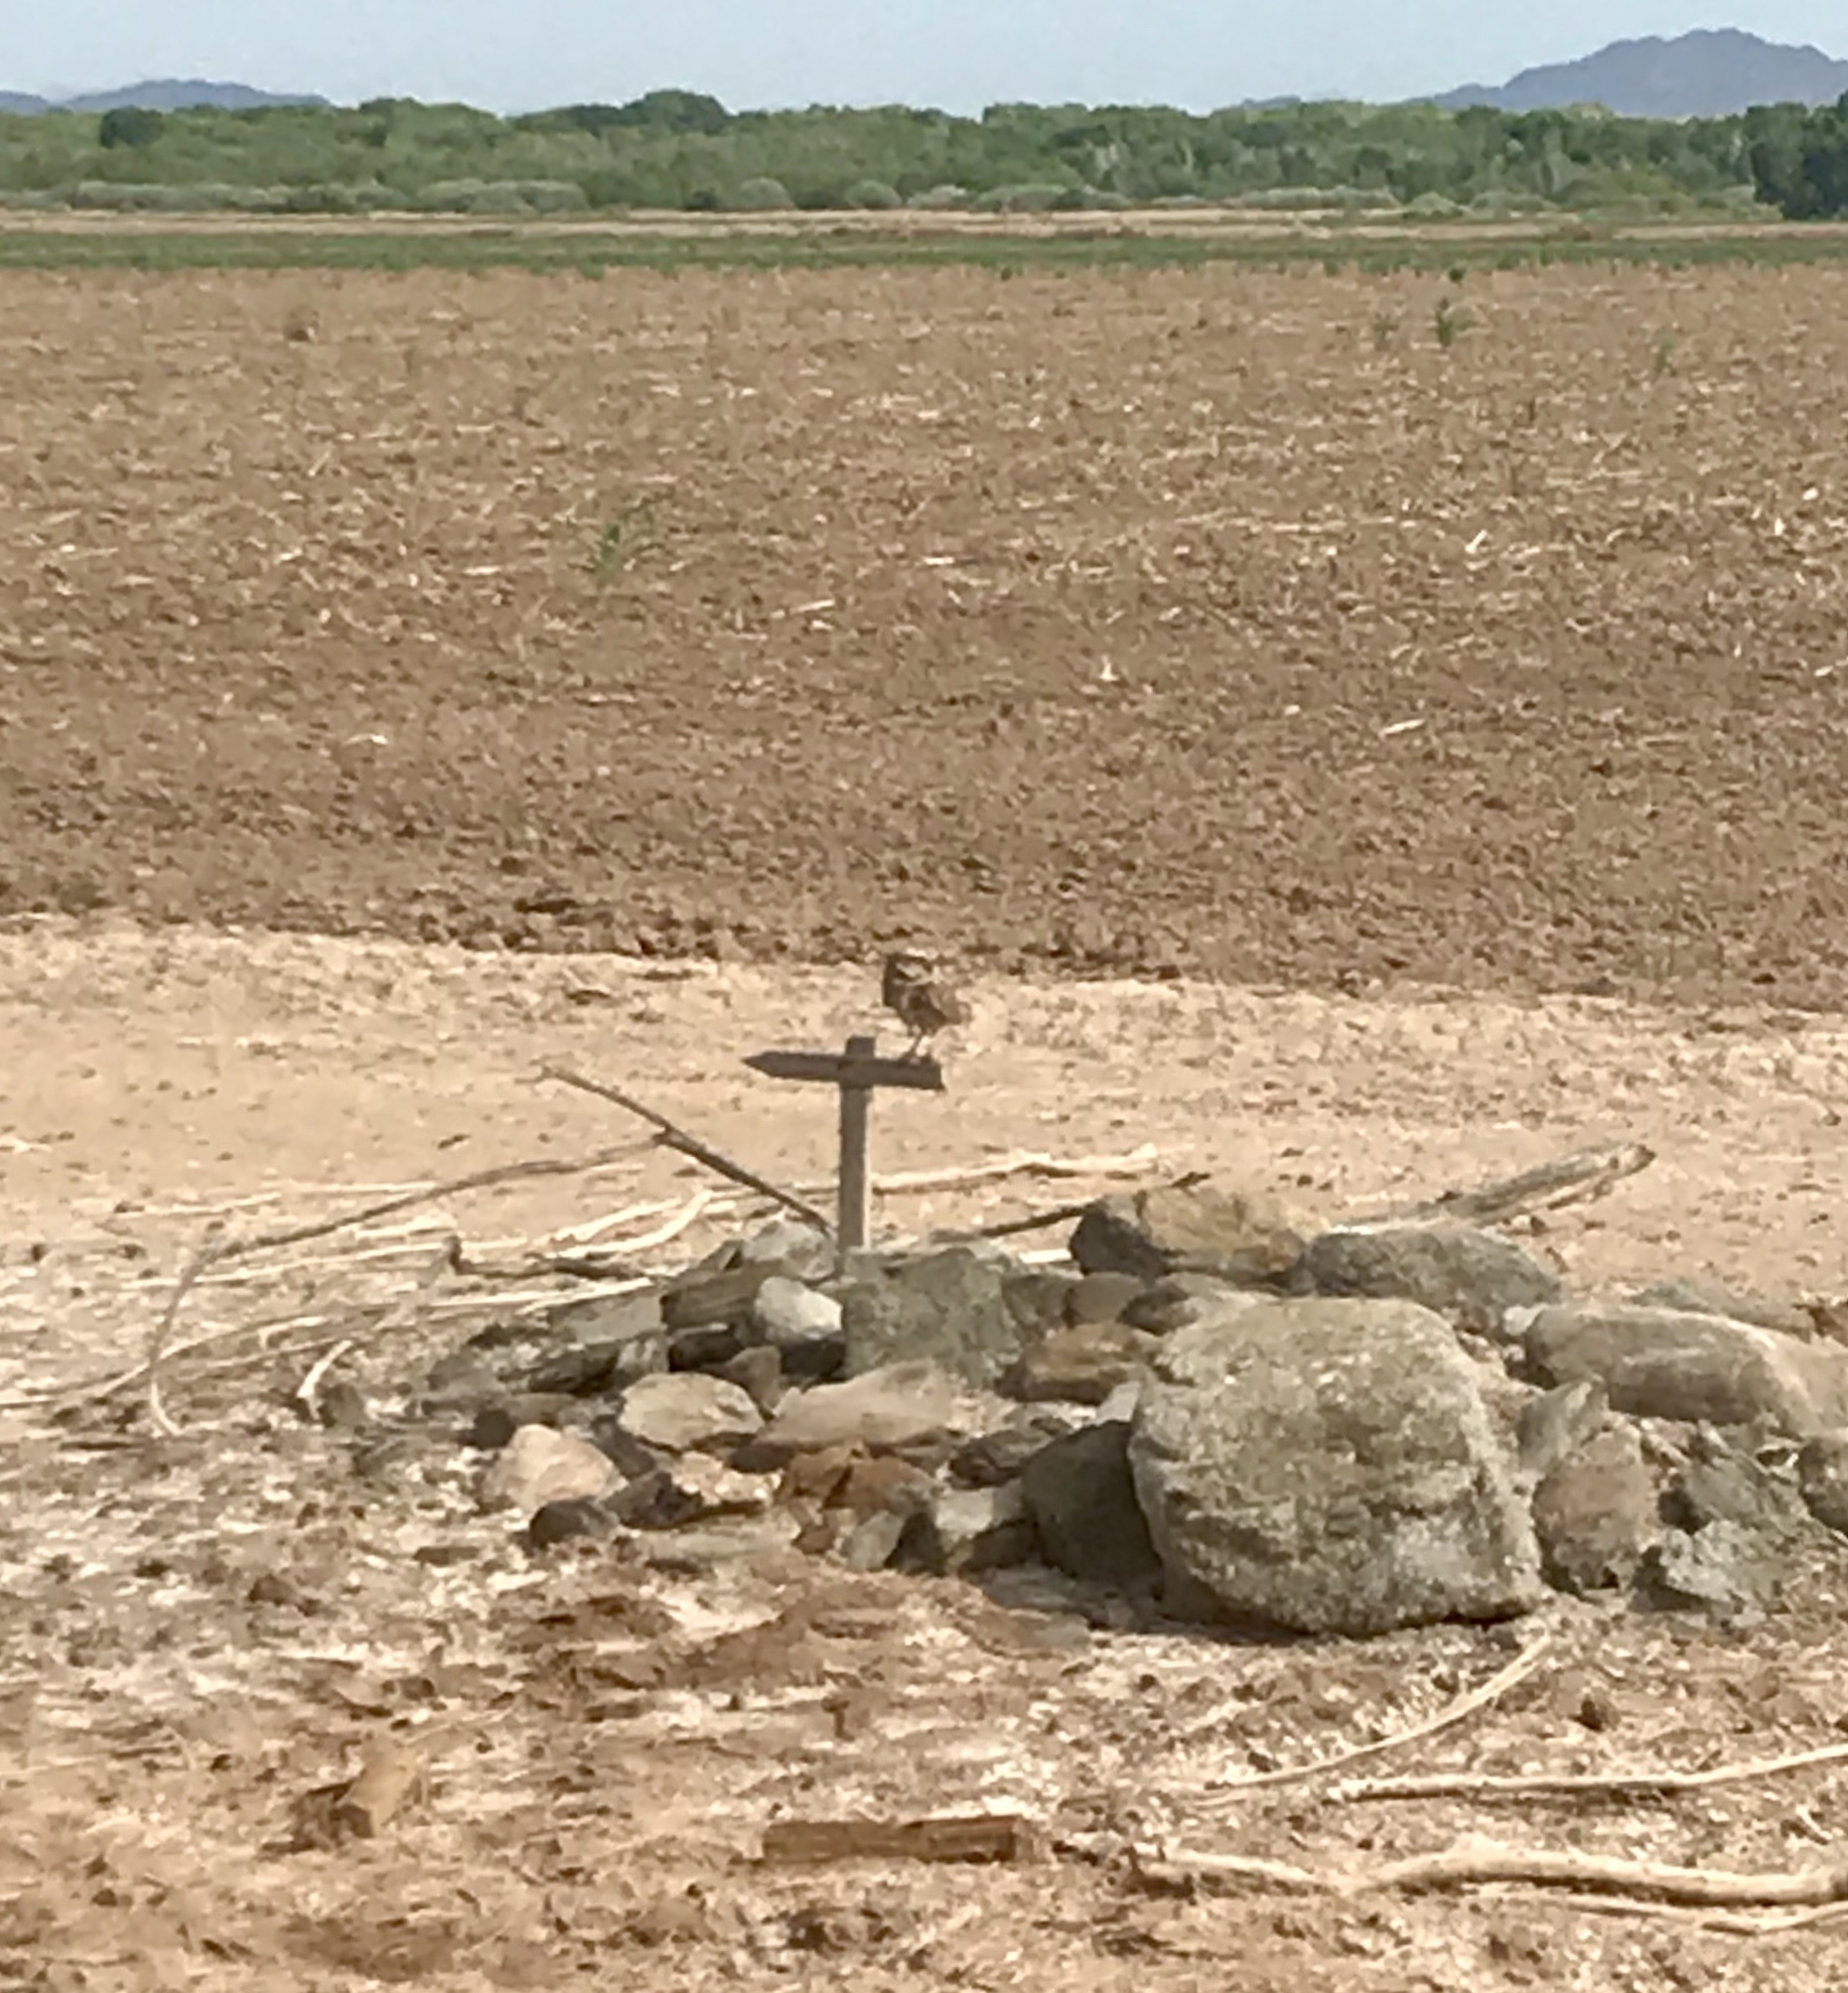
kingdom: Animalia
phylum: Chordata
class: Aves
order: Strigiformes
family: Strigidae
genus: Athene
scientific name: Athene cunicularia
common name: Burrowing owl
